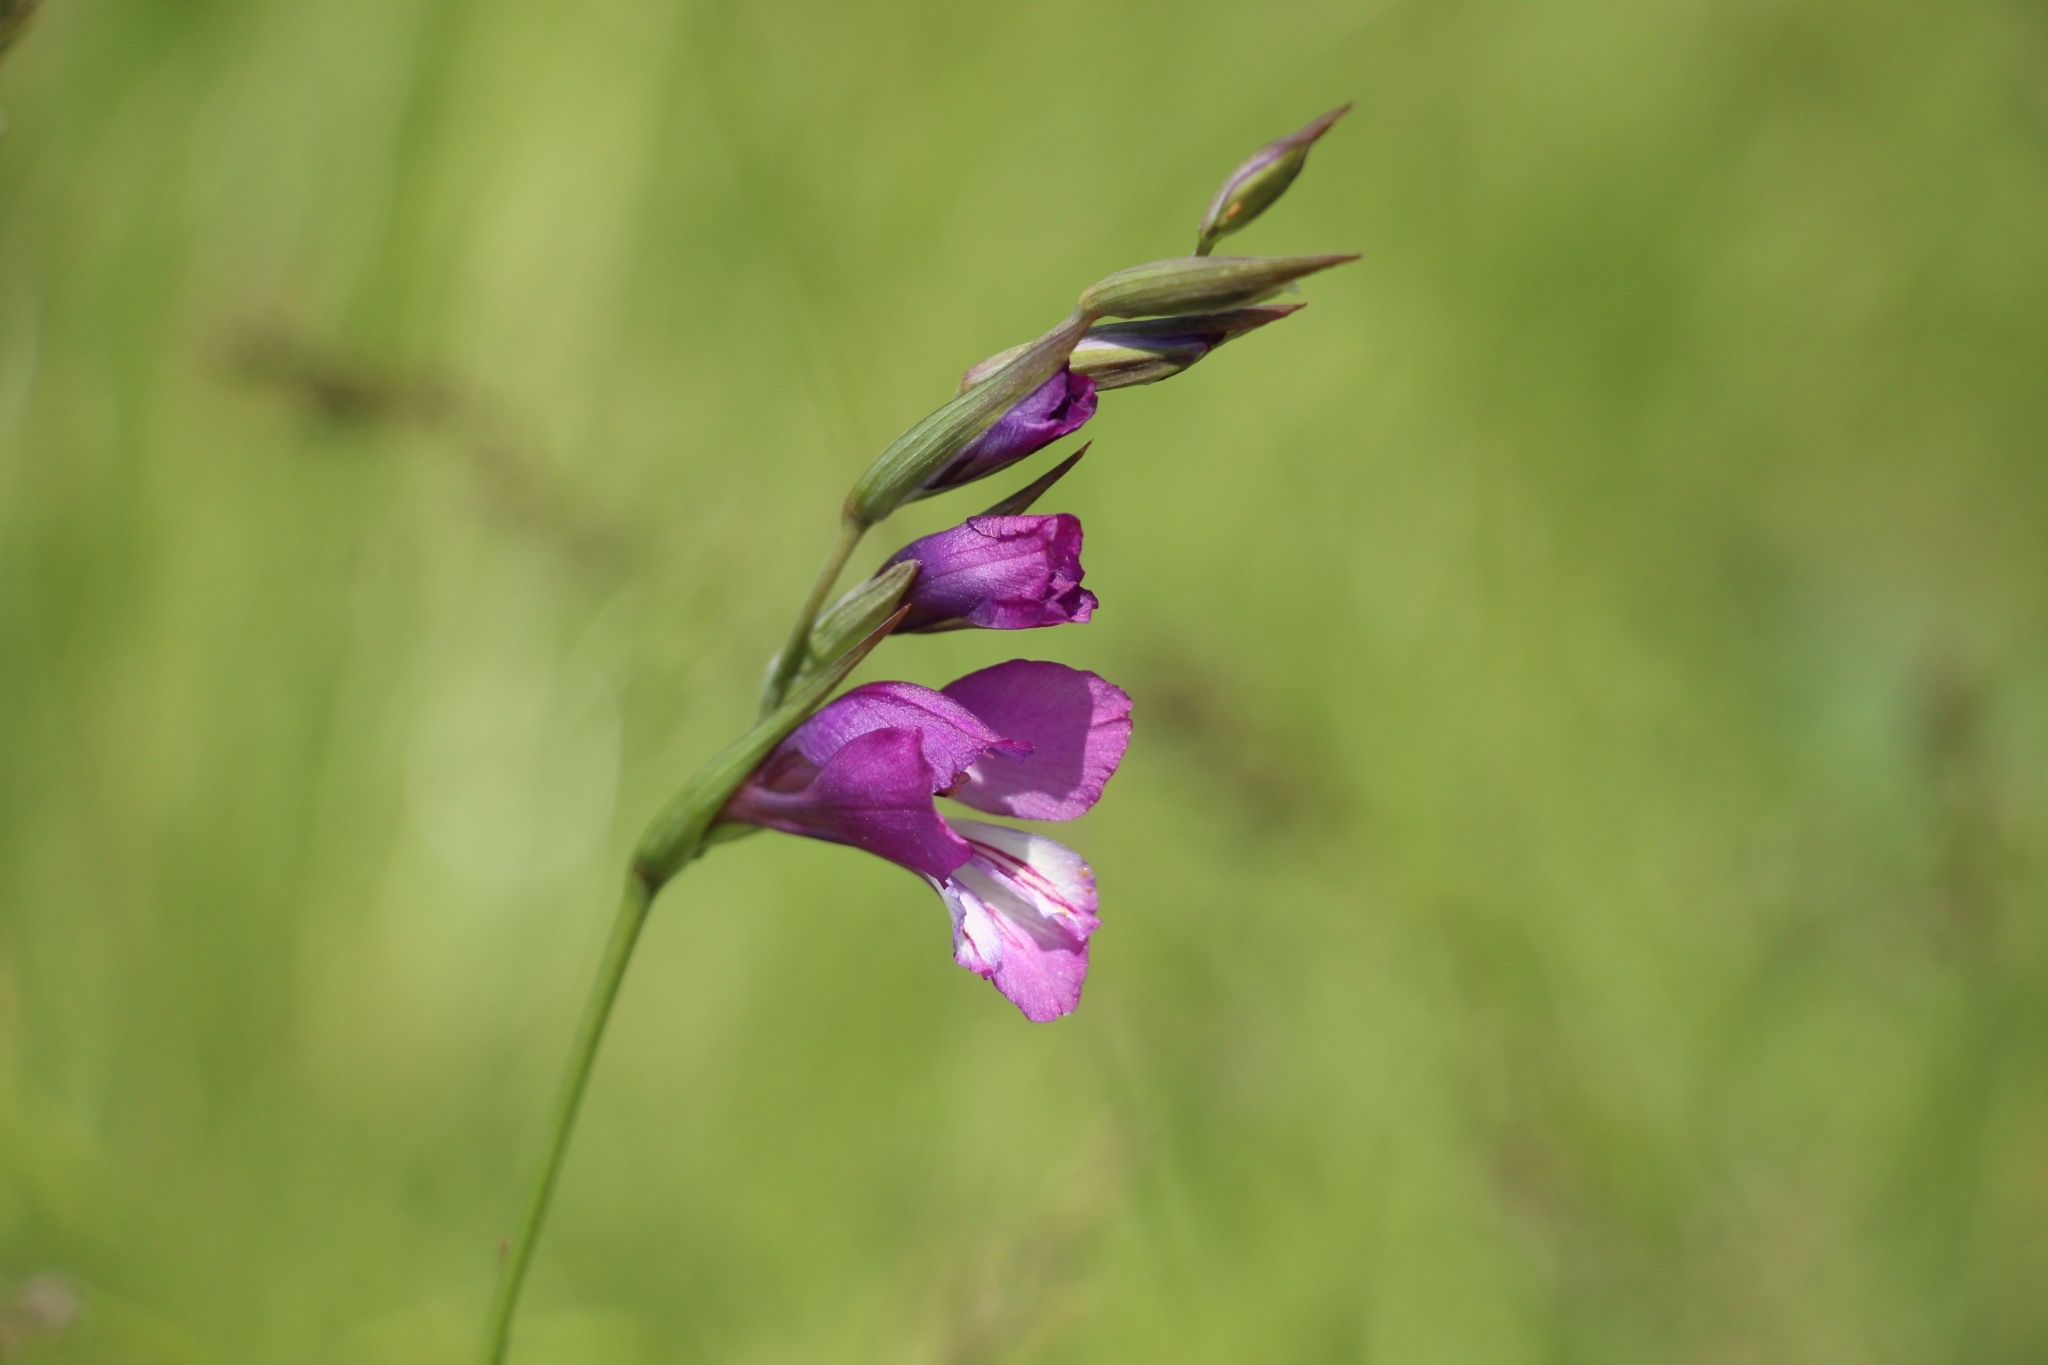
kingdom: Plantae
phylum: Tracheophyta
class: Liliopsida
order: Asparagales
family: Iridaceae
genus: Gladiolus
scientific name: Gladiolus tenuis
